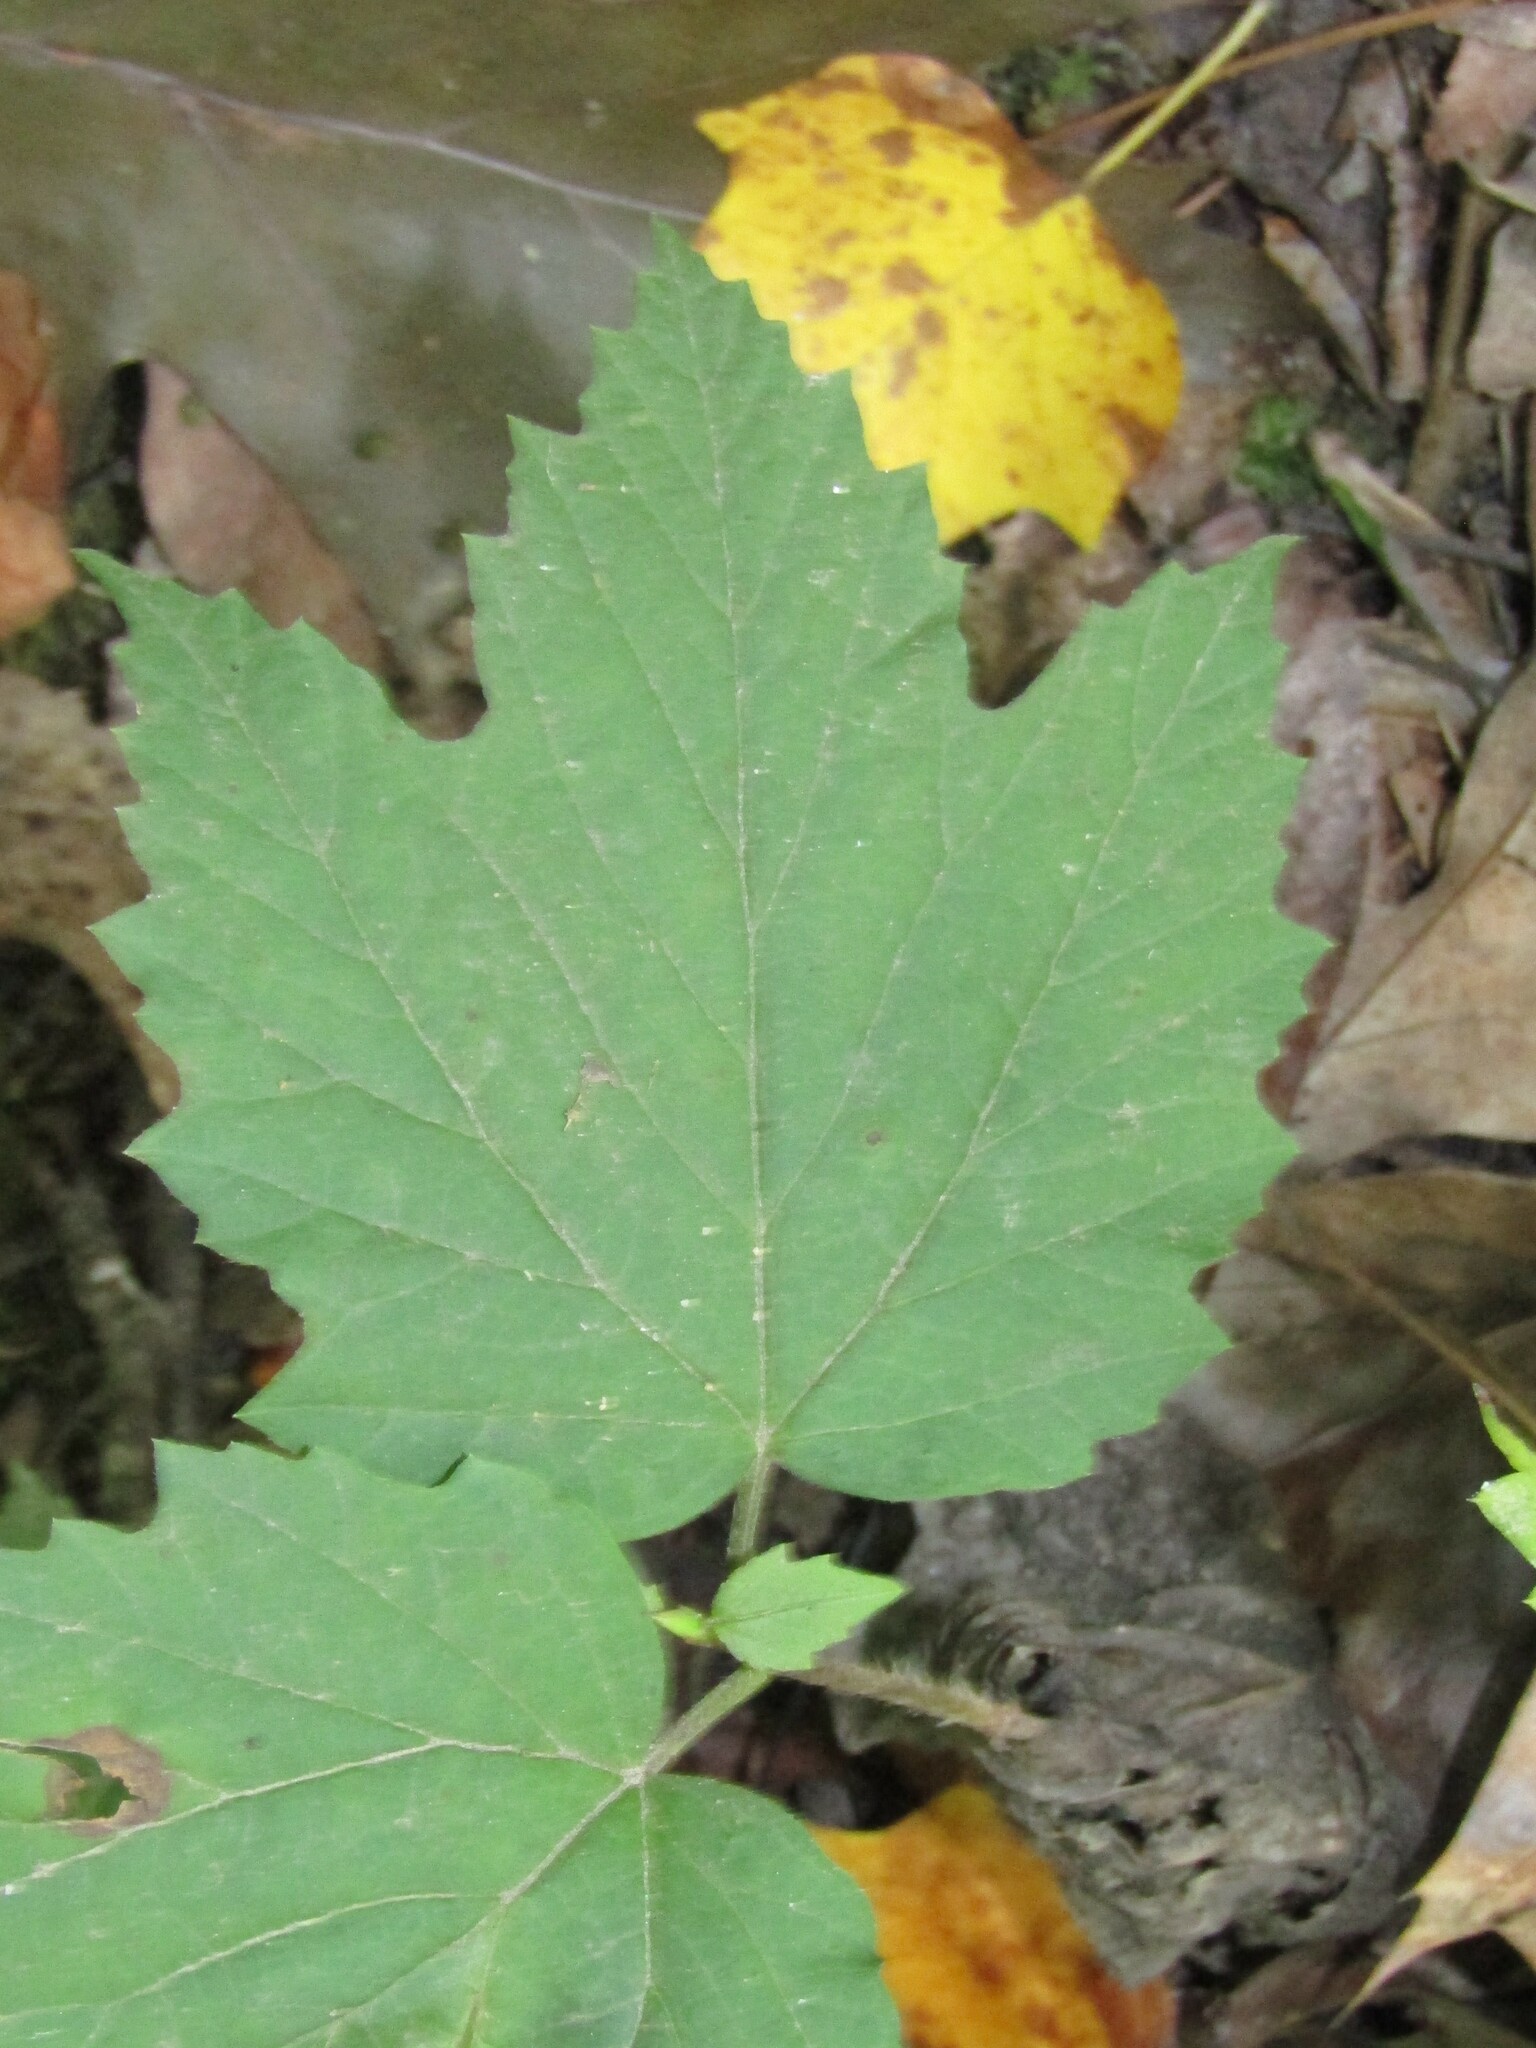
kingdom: Plantae
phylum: Tracheophyta
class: Magnoliopsida
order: Dipsacales
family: Viburnaceae
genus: Viburnum
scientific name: Viburnum acerifolium
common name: Dockmackie
